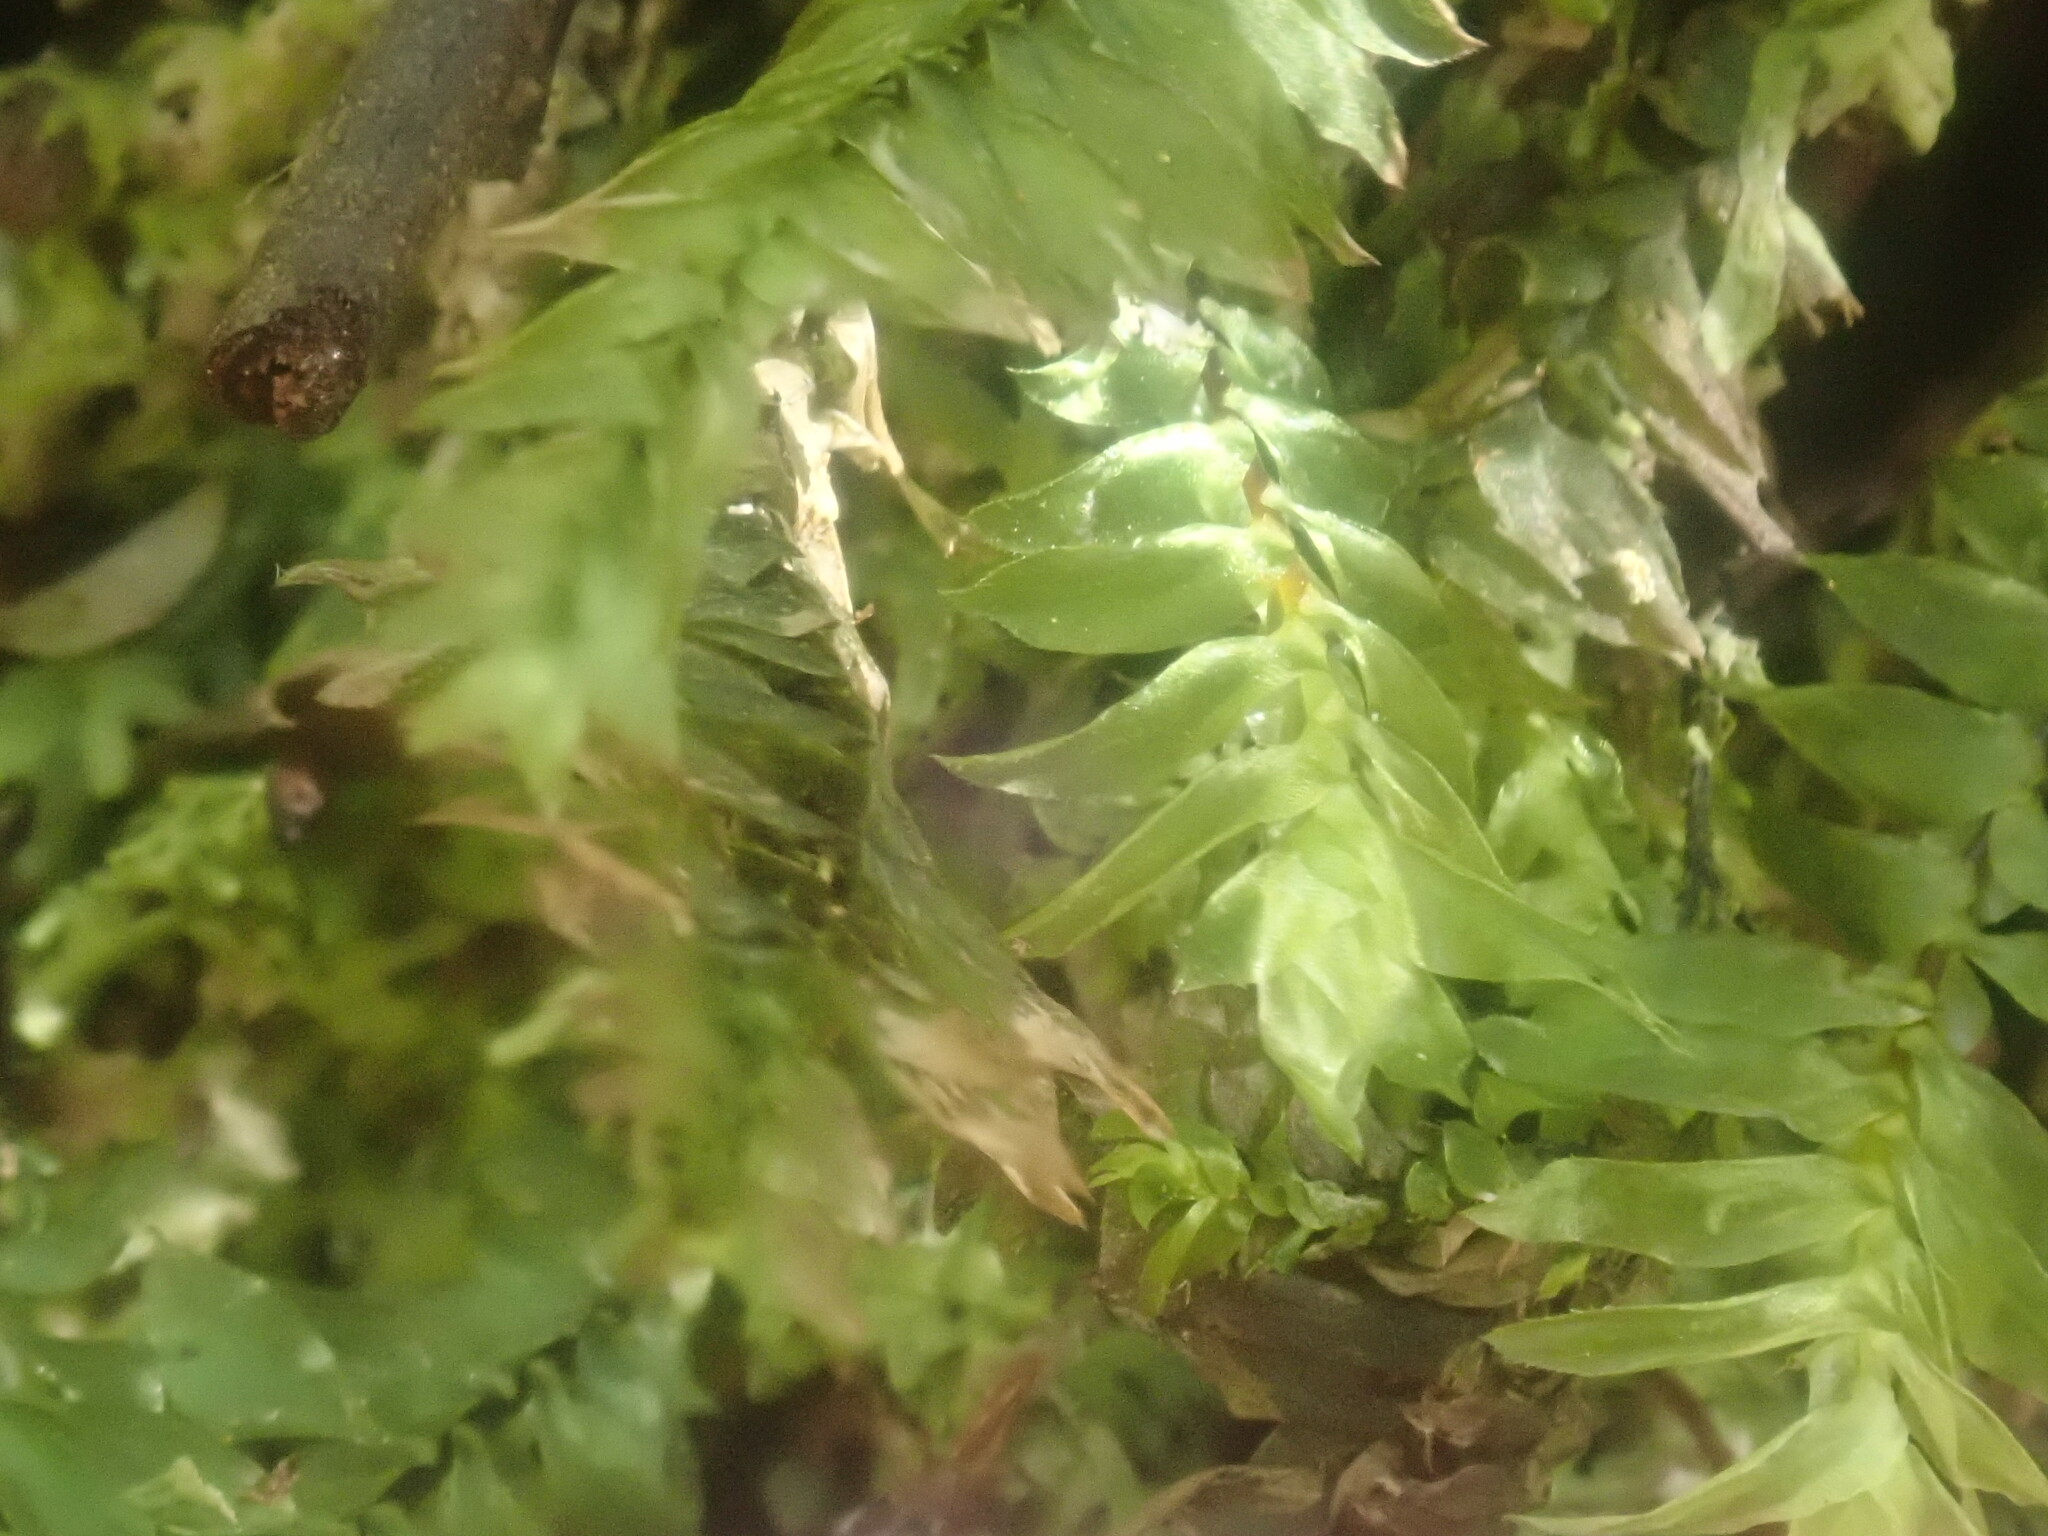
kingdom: Plantae
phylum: Bryophyta
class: Bryopsida
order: Hypopterygiales
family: Hypopterygiaceae
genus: Cyathophorum
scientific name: Cyathophorum bulbosum
